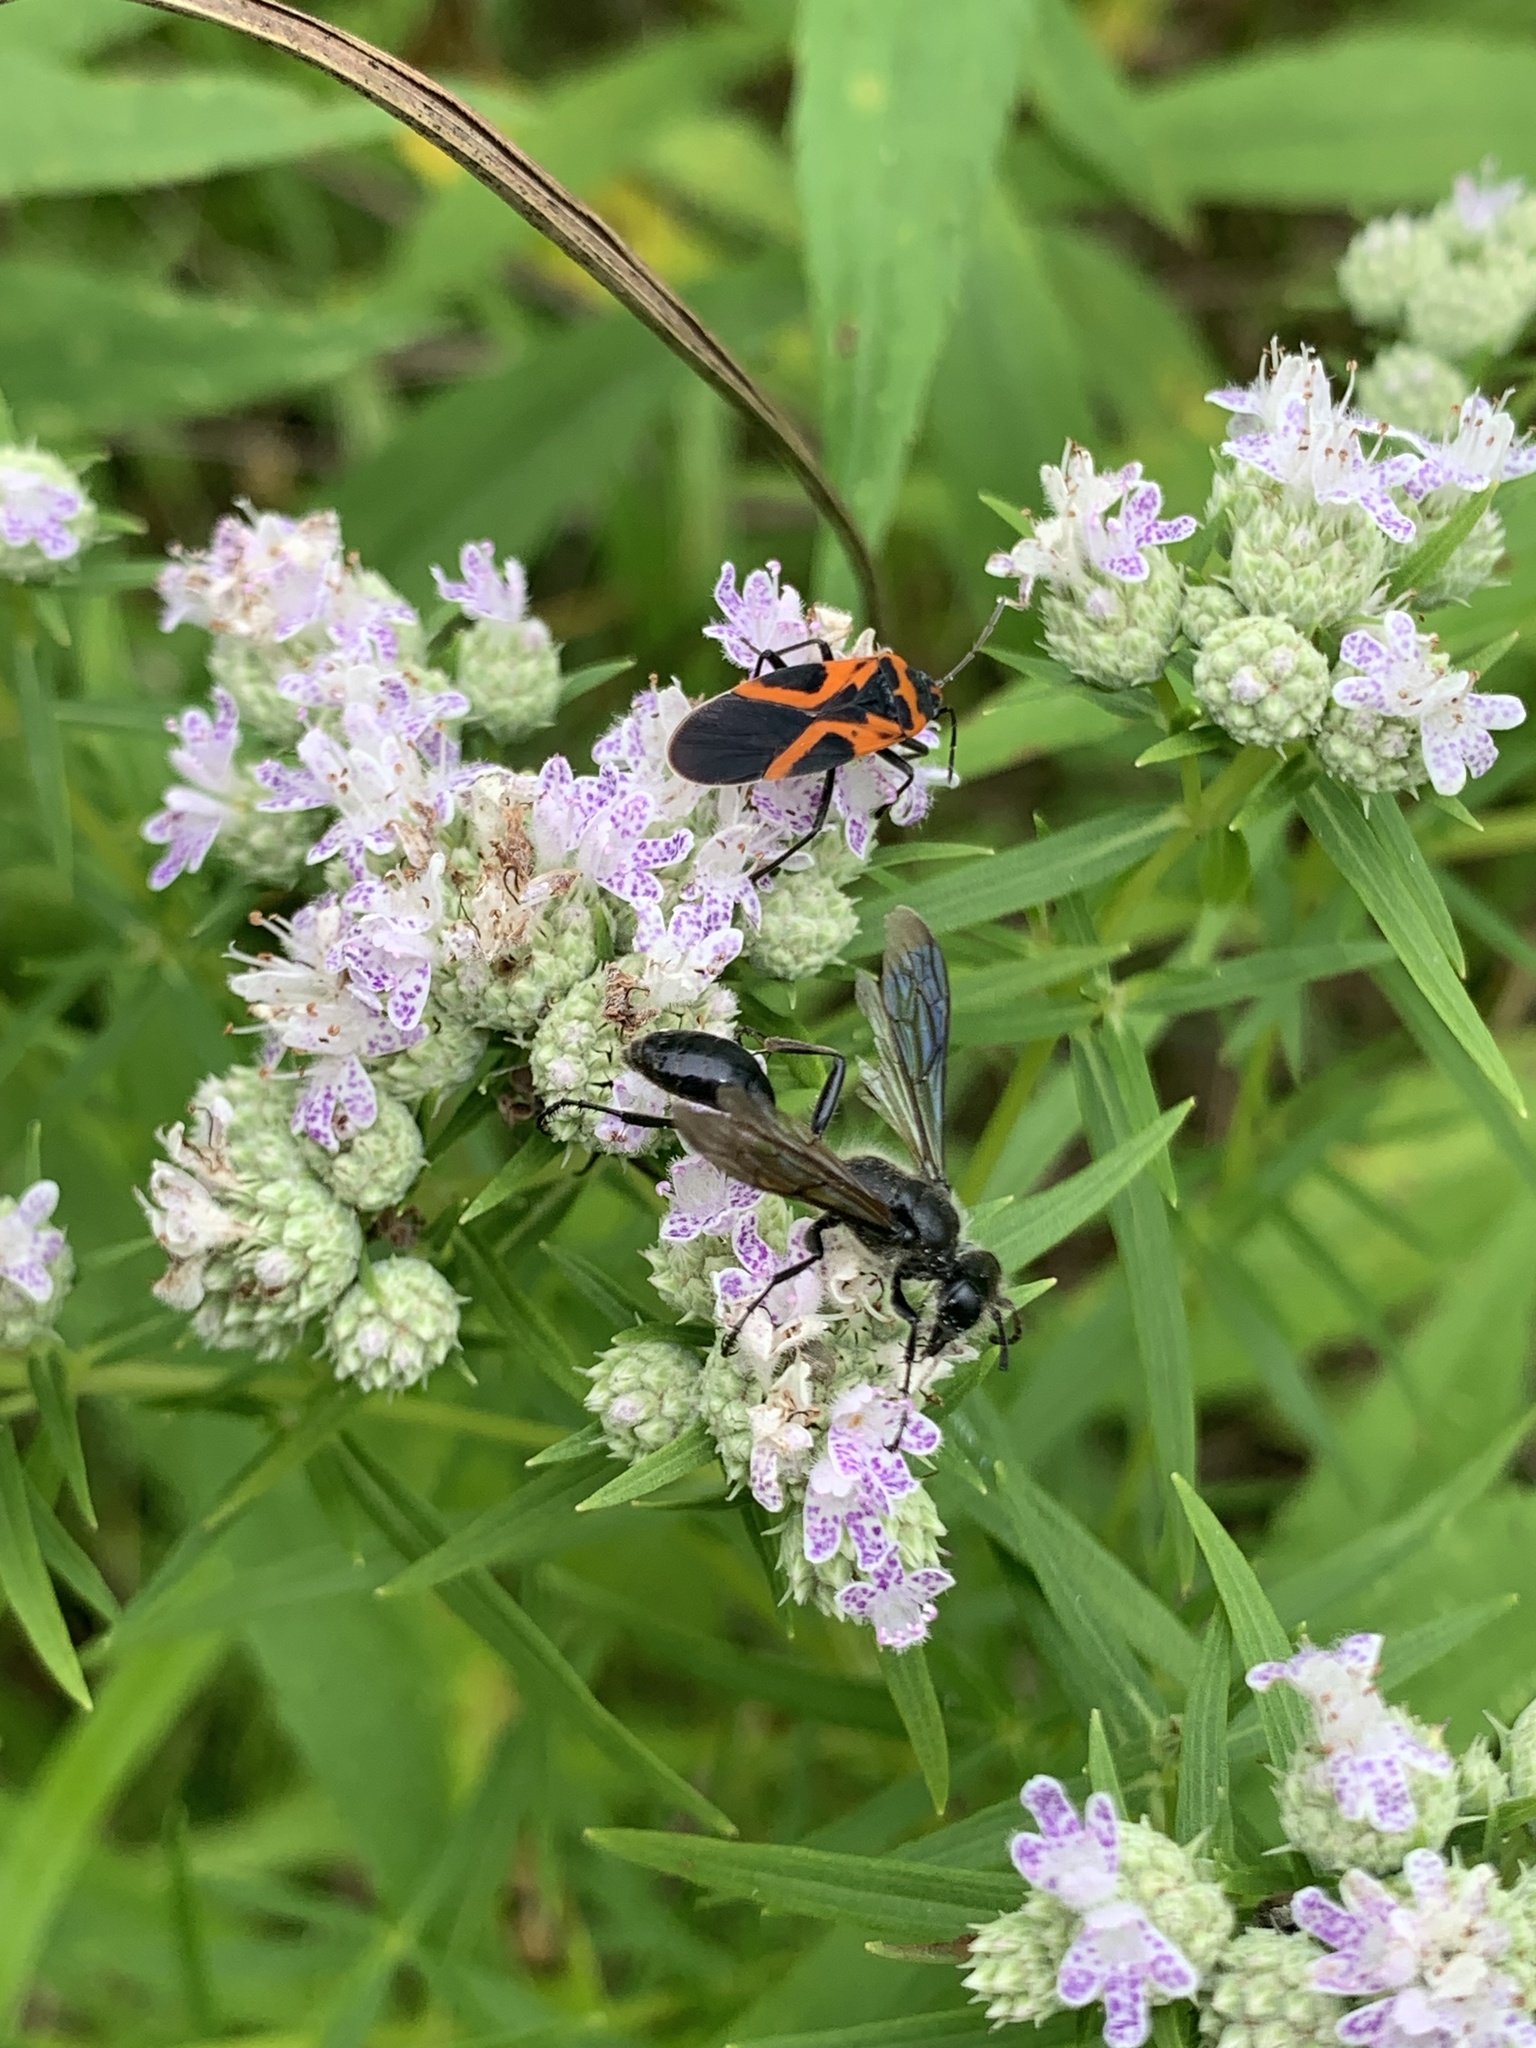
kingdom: Animalia
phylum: Arthropoda
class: Insecta
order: Hemiptera
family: Lygaeidae
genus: Lygaeus
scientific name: Lygaeus turcicus
